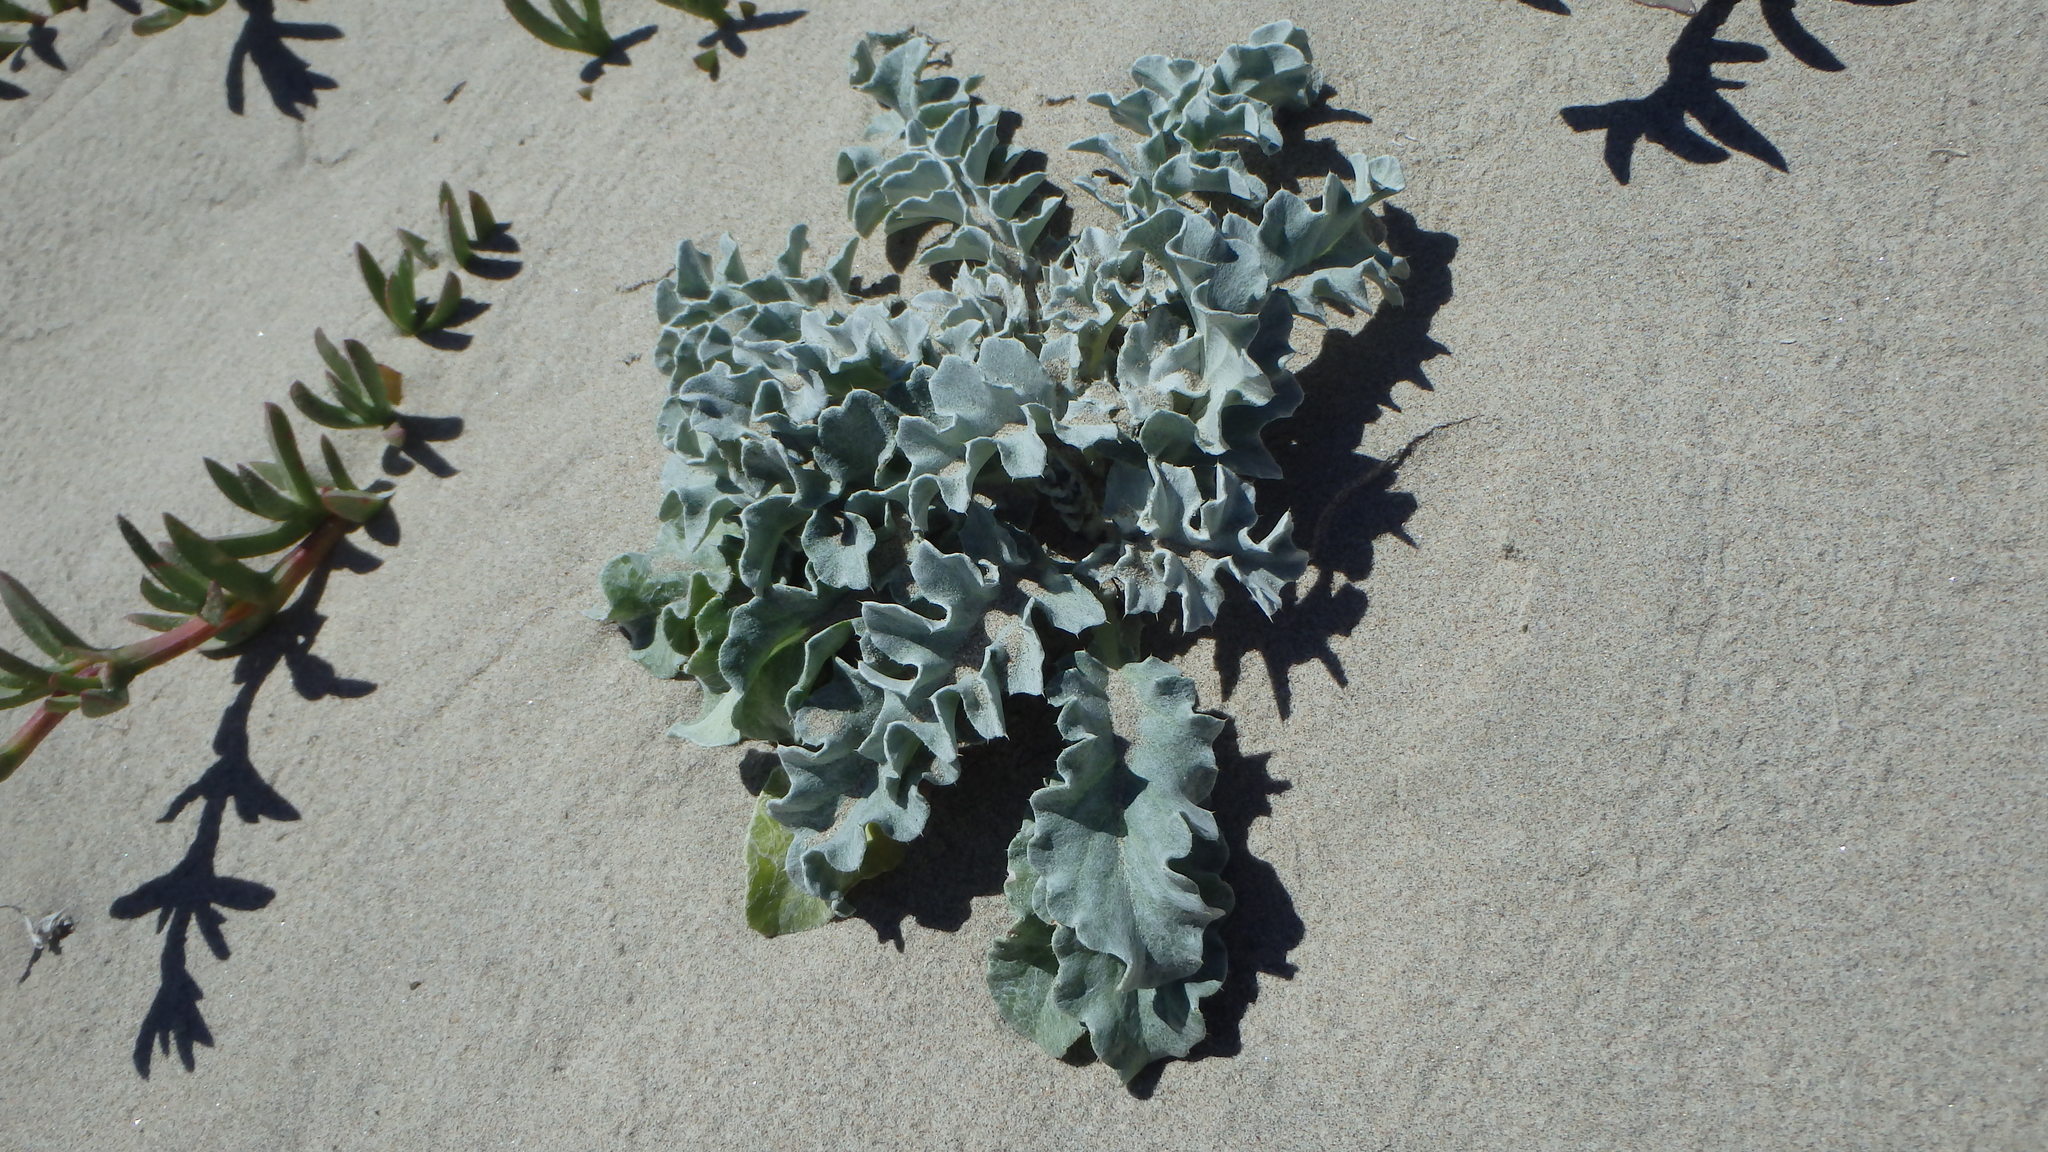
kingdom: Plantae
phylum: Tracheophyta
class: Magnoliopsida
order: Asterales
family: Asteraceae
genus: Cirsium
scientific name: Cirsium rhothophilum
